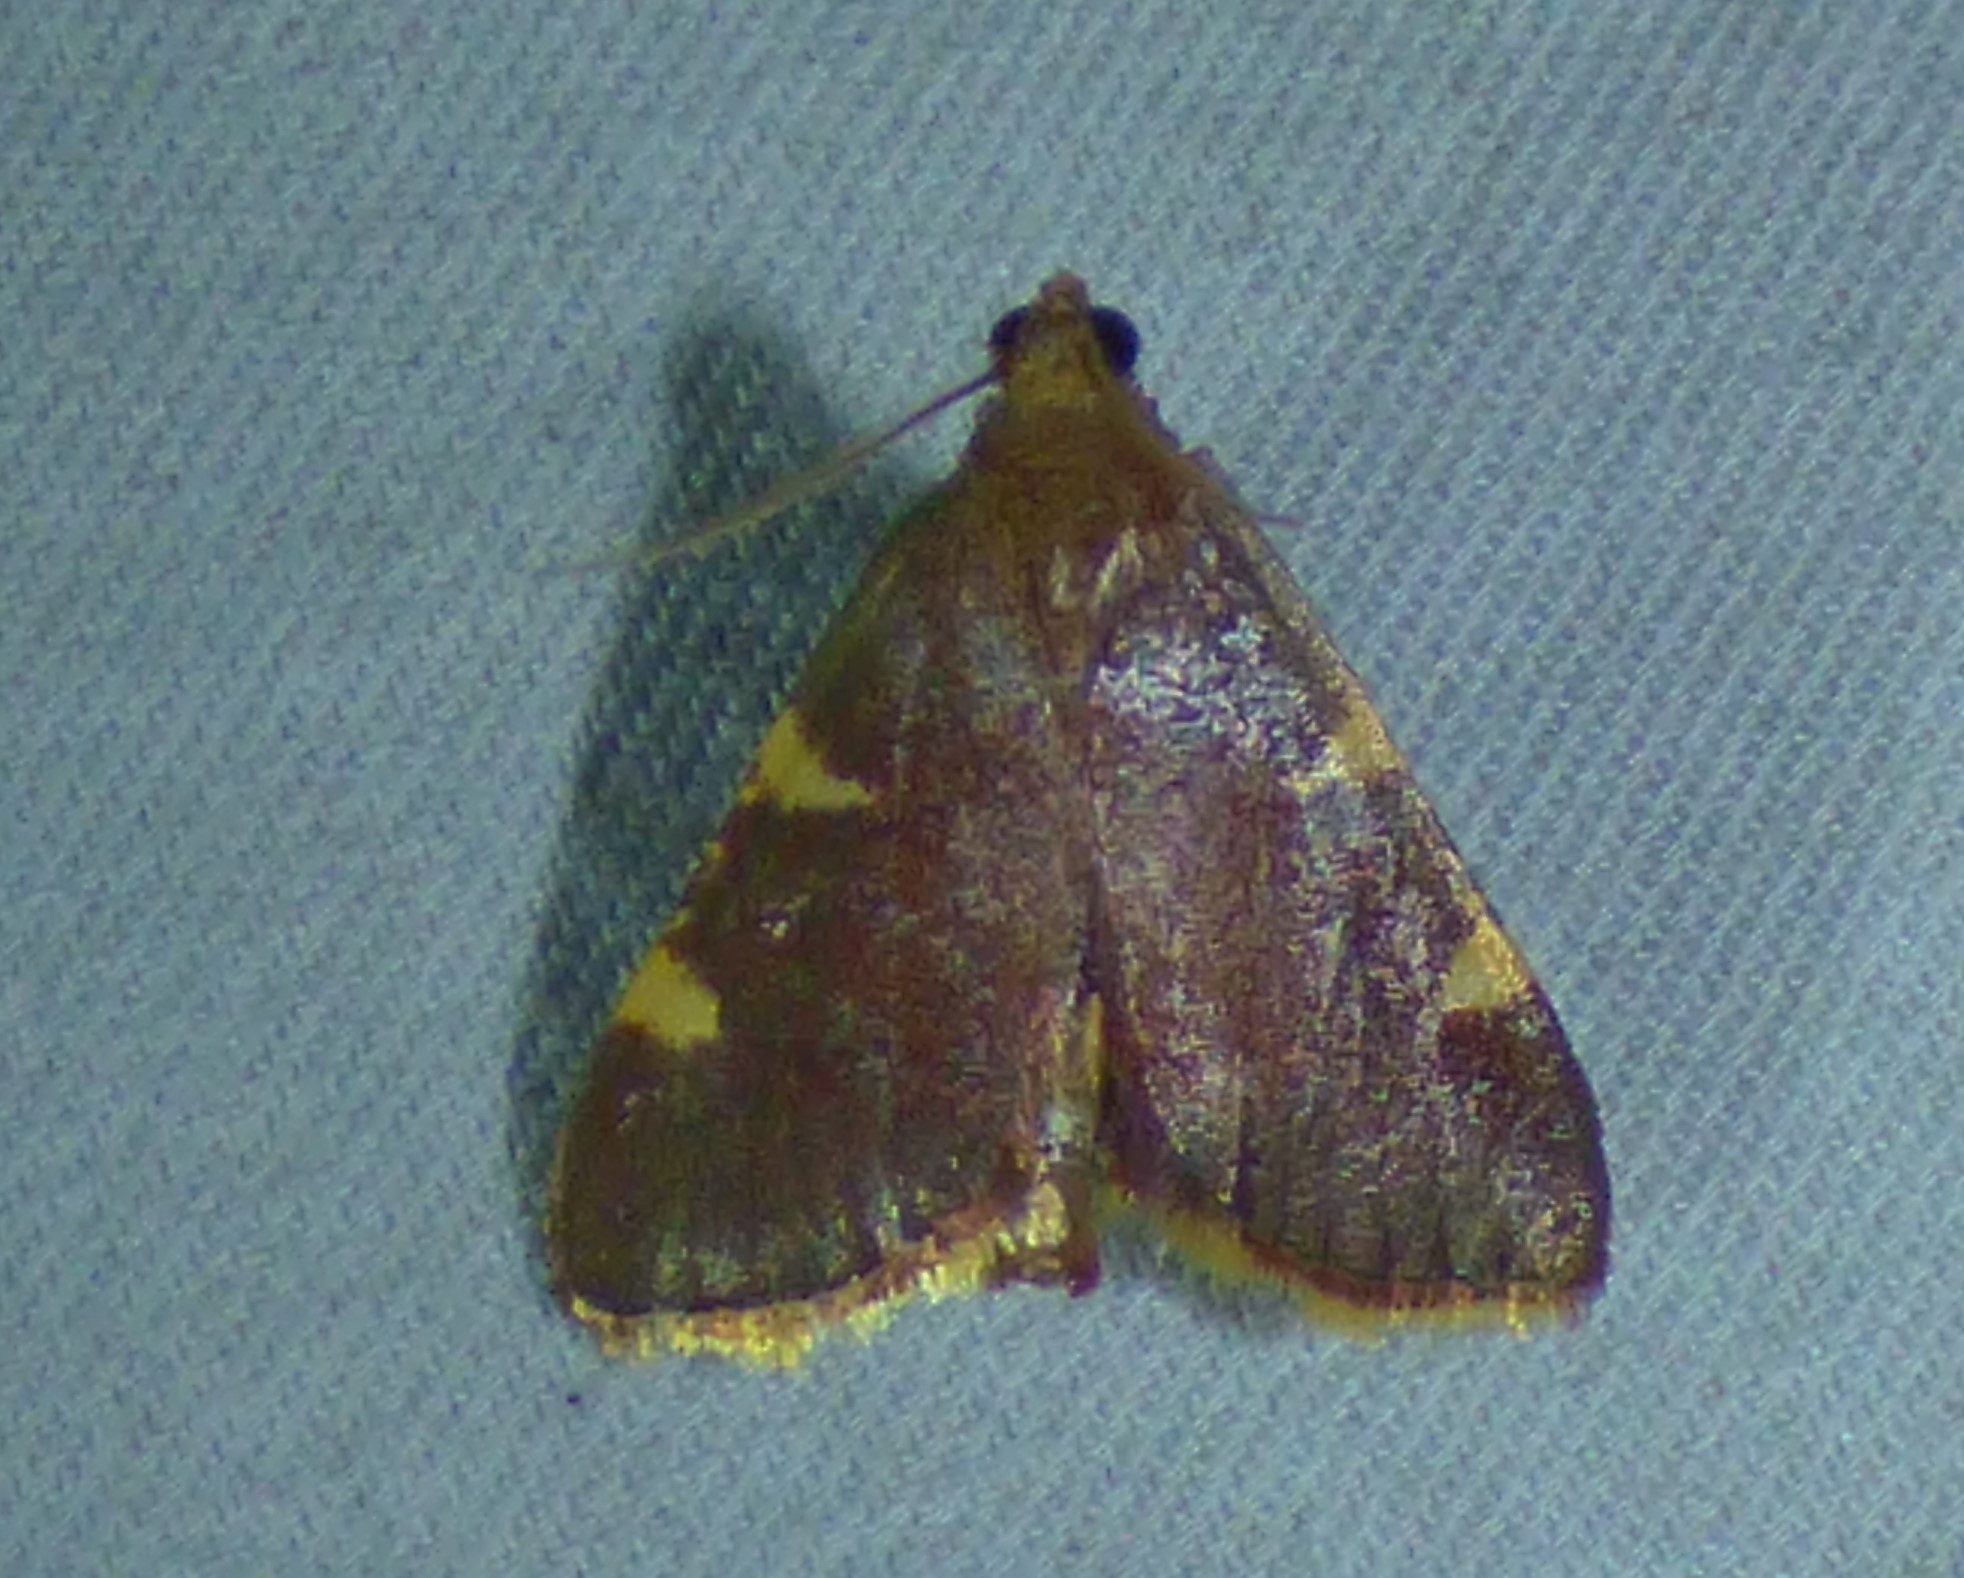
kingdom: Animalia
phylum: Arthropoda
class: Insecta
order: Lepidoptera
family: Pyralidae
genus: Hypsopygia
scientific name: Hypsopygia olinalis
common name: Yellow-fringed dolichomia moth
